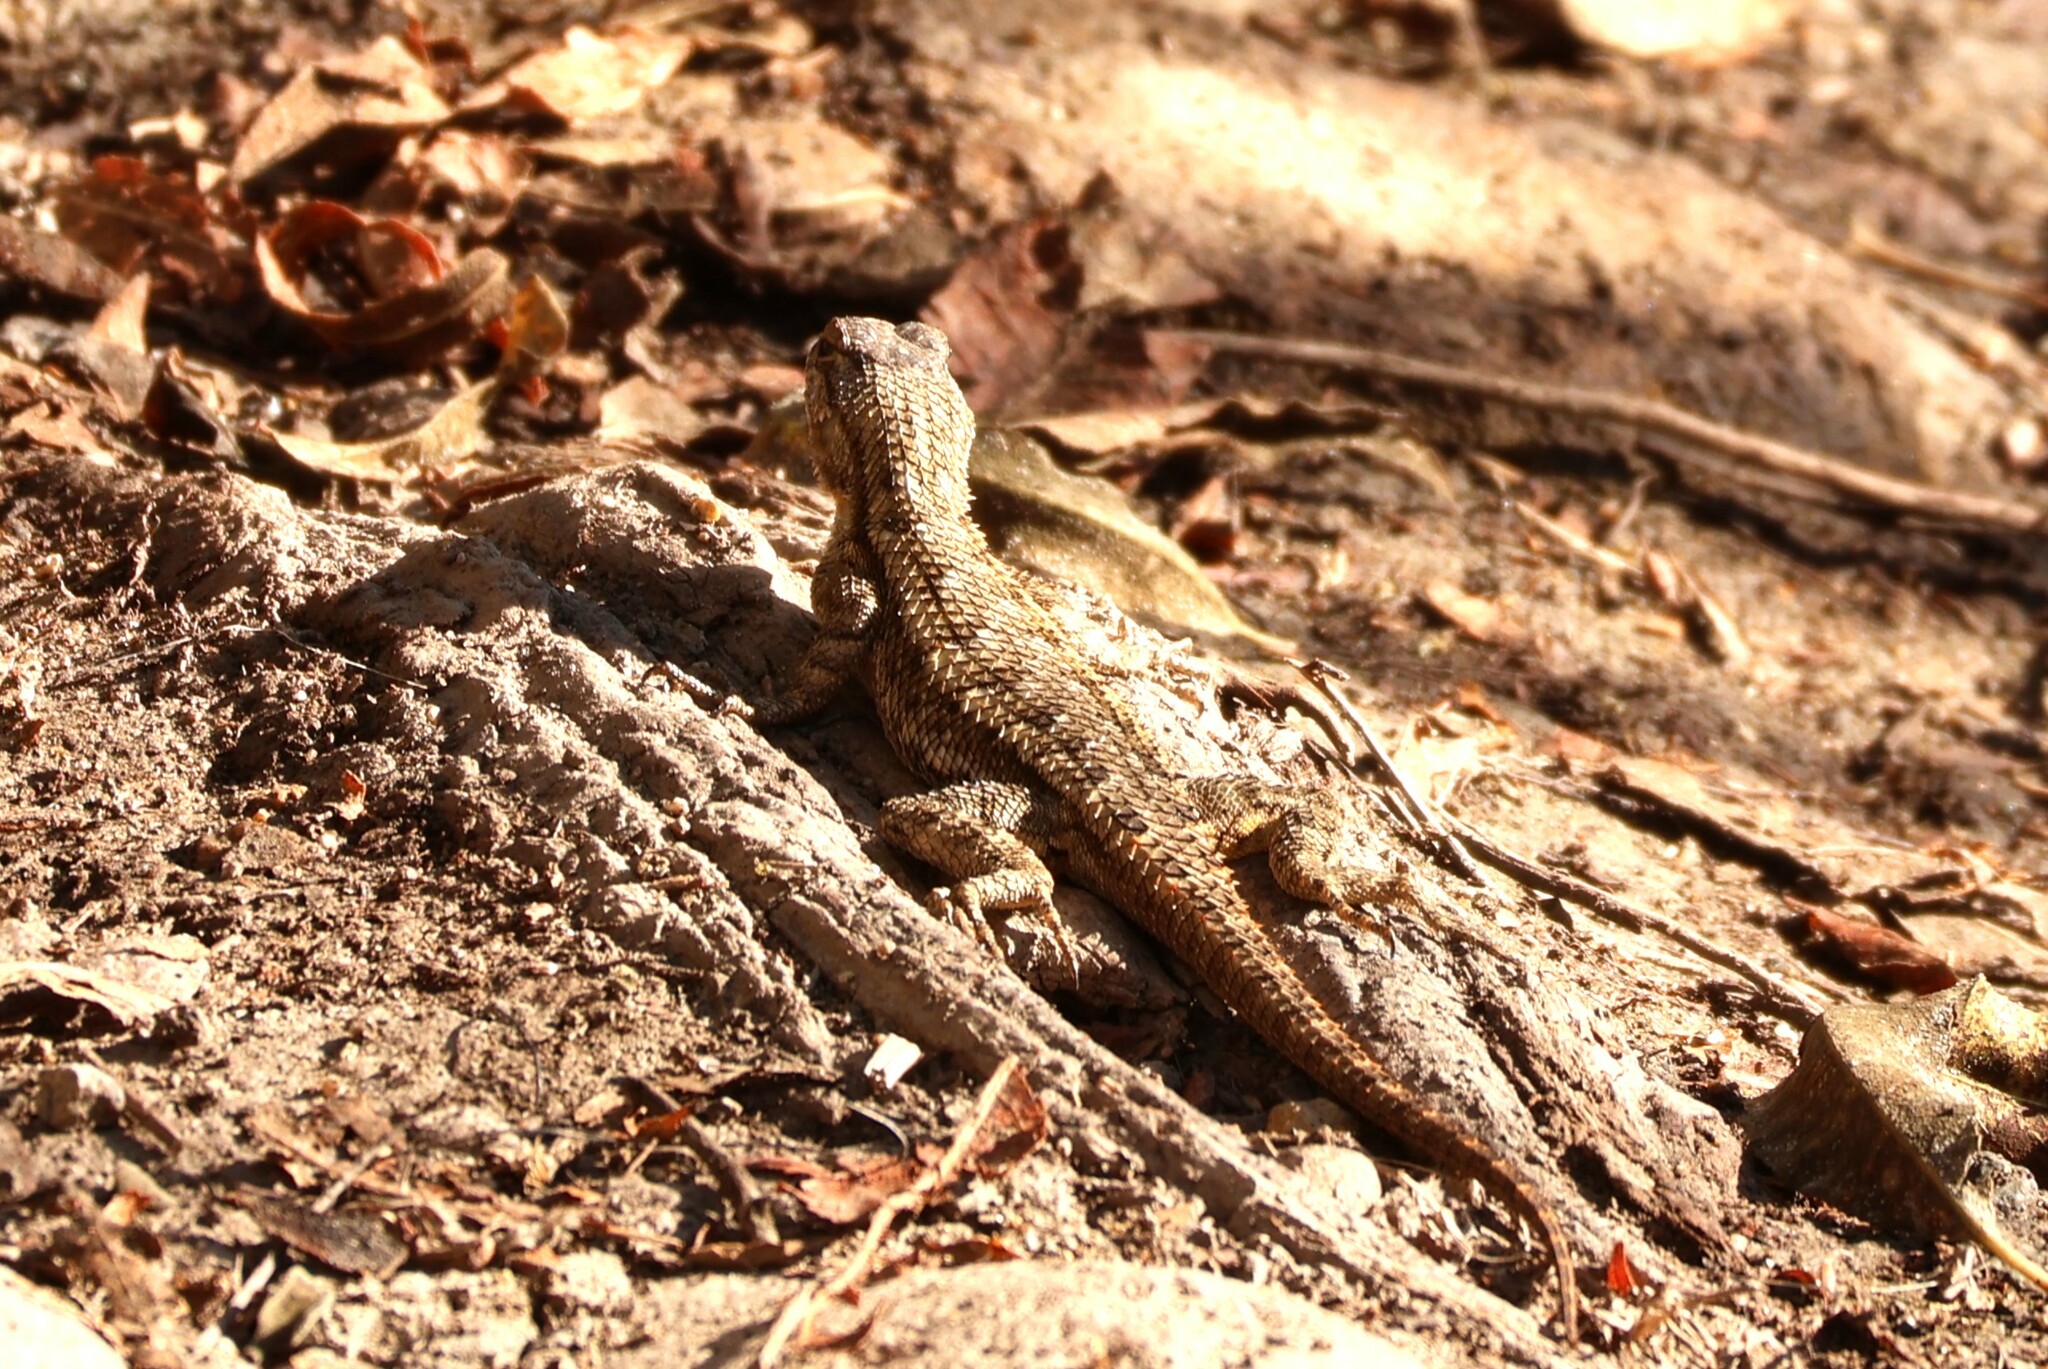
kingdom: Animalia
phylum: Chordata
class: Squamata
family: Phrynosomatidae
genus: Sceloporus
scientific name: Sceloporus occidentalis
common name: Western fence lizard
